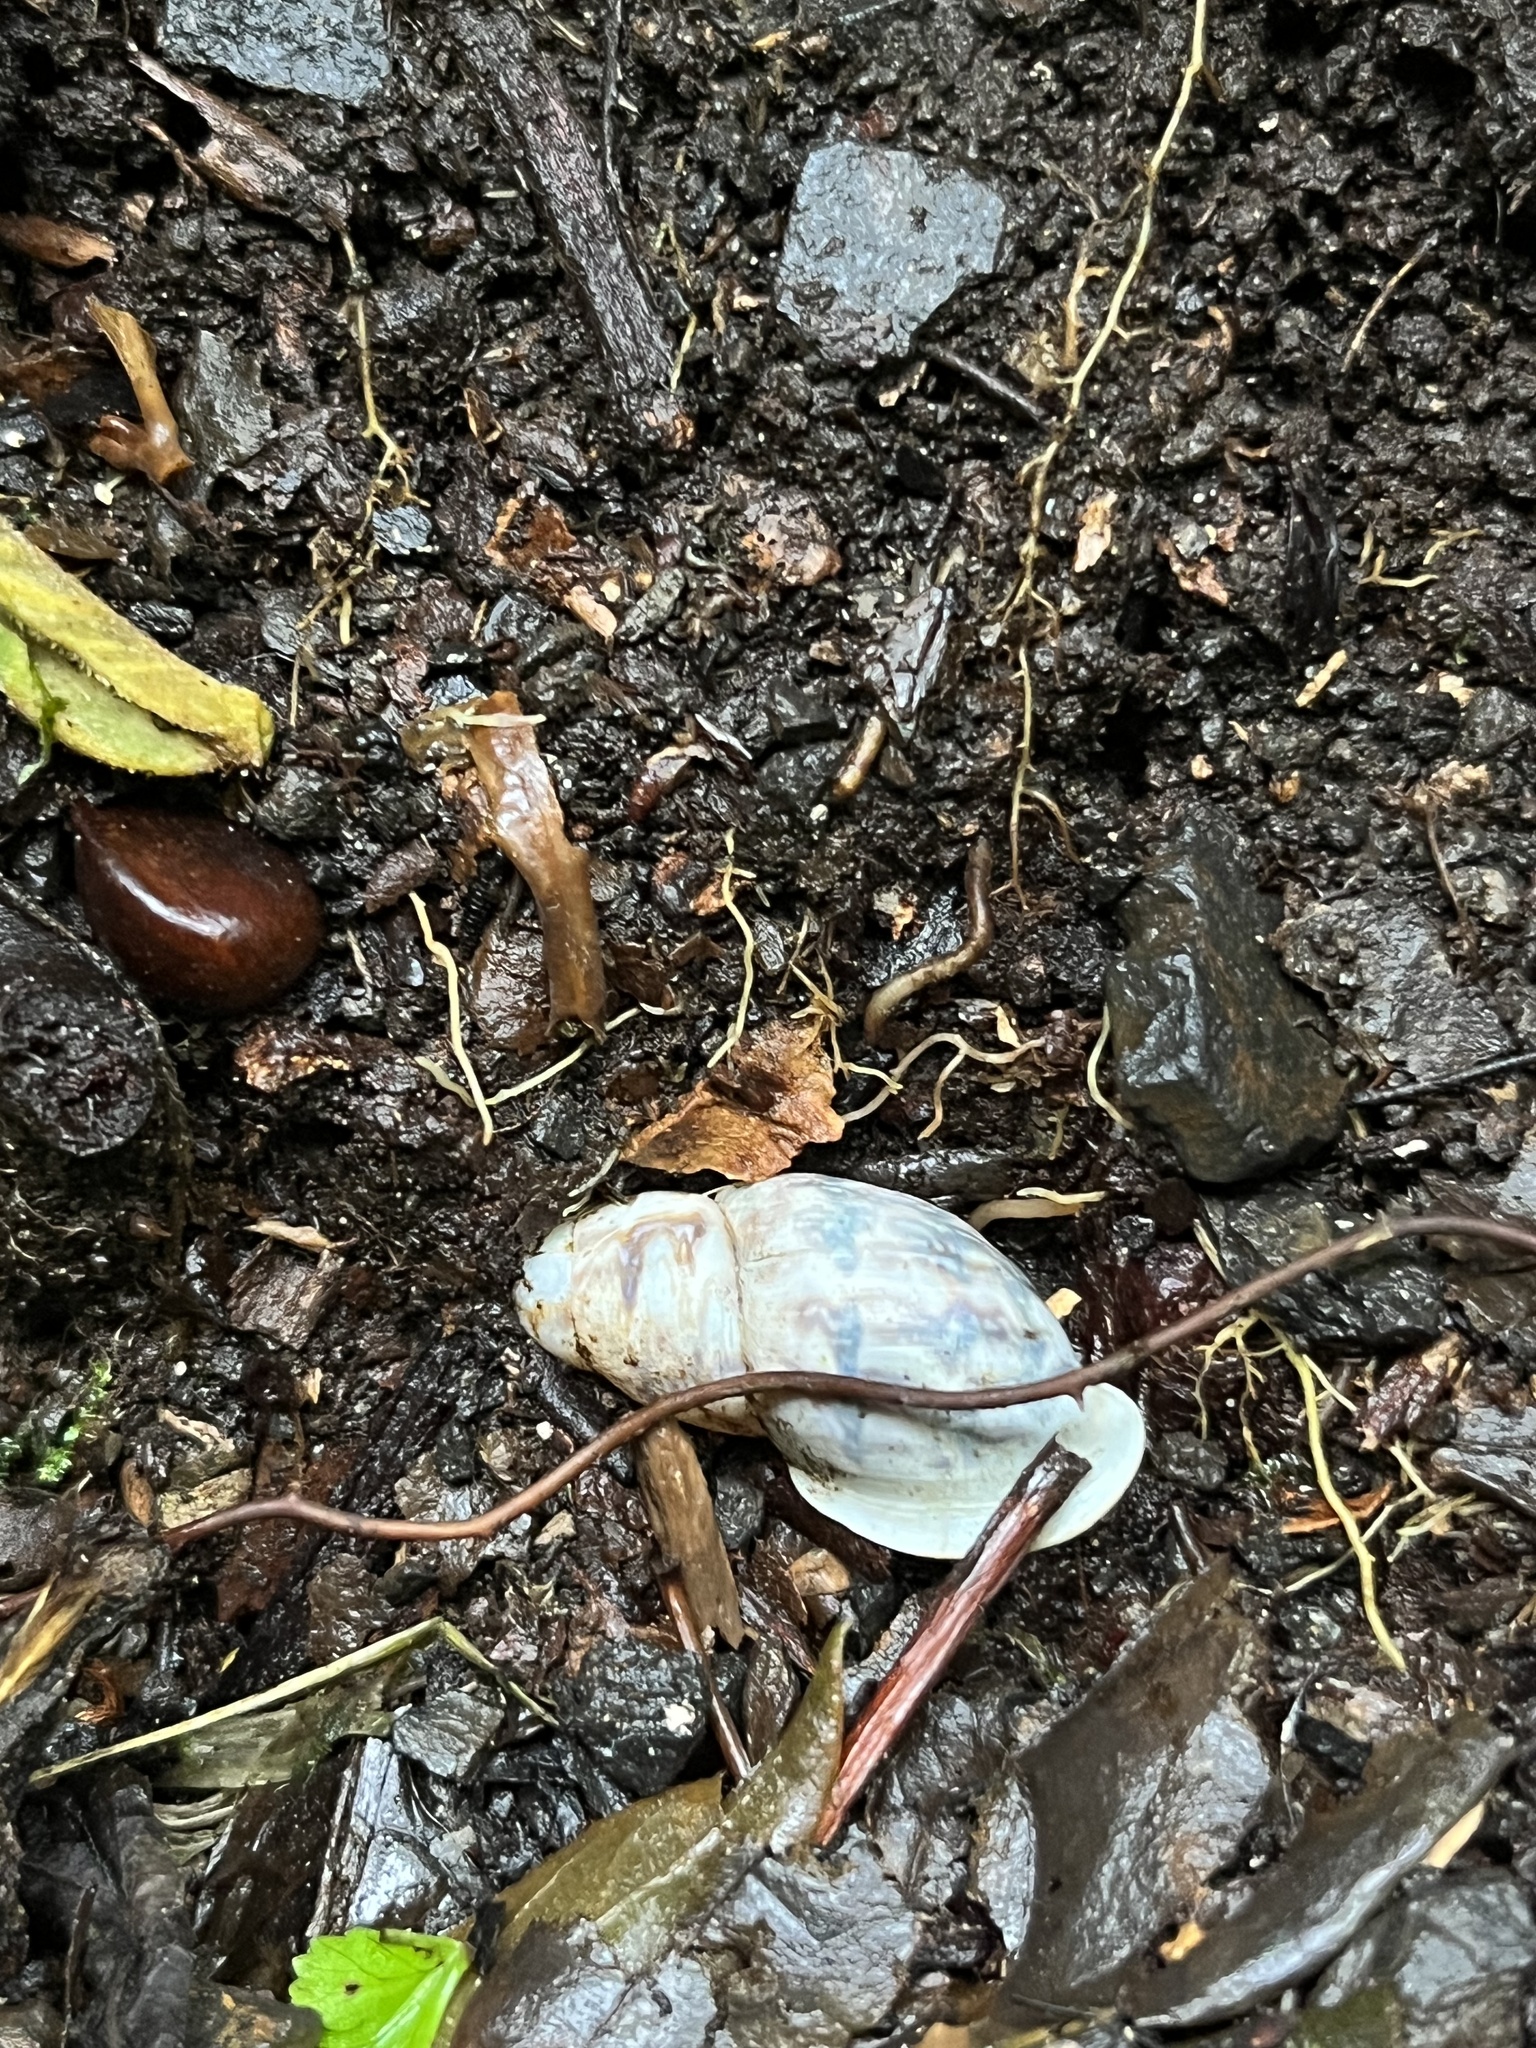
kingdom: Animalia
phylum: Mollusca
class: Gastropoda
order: Stylommatophora
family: Bulimulidae
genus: Drymaeus
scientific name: Drymaeus smithii
